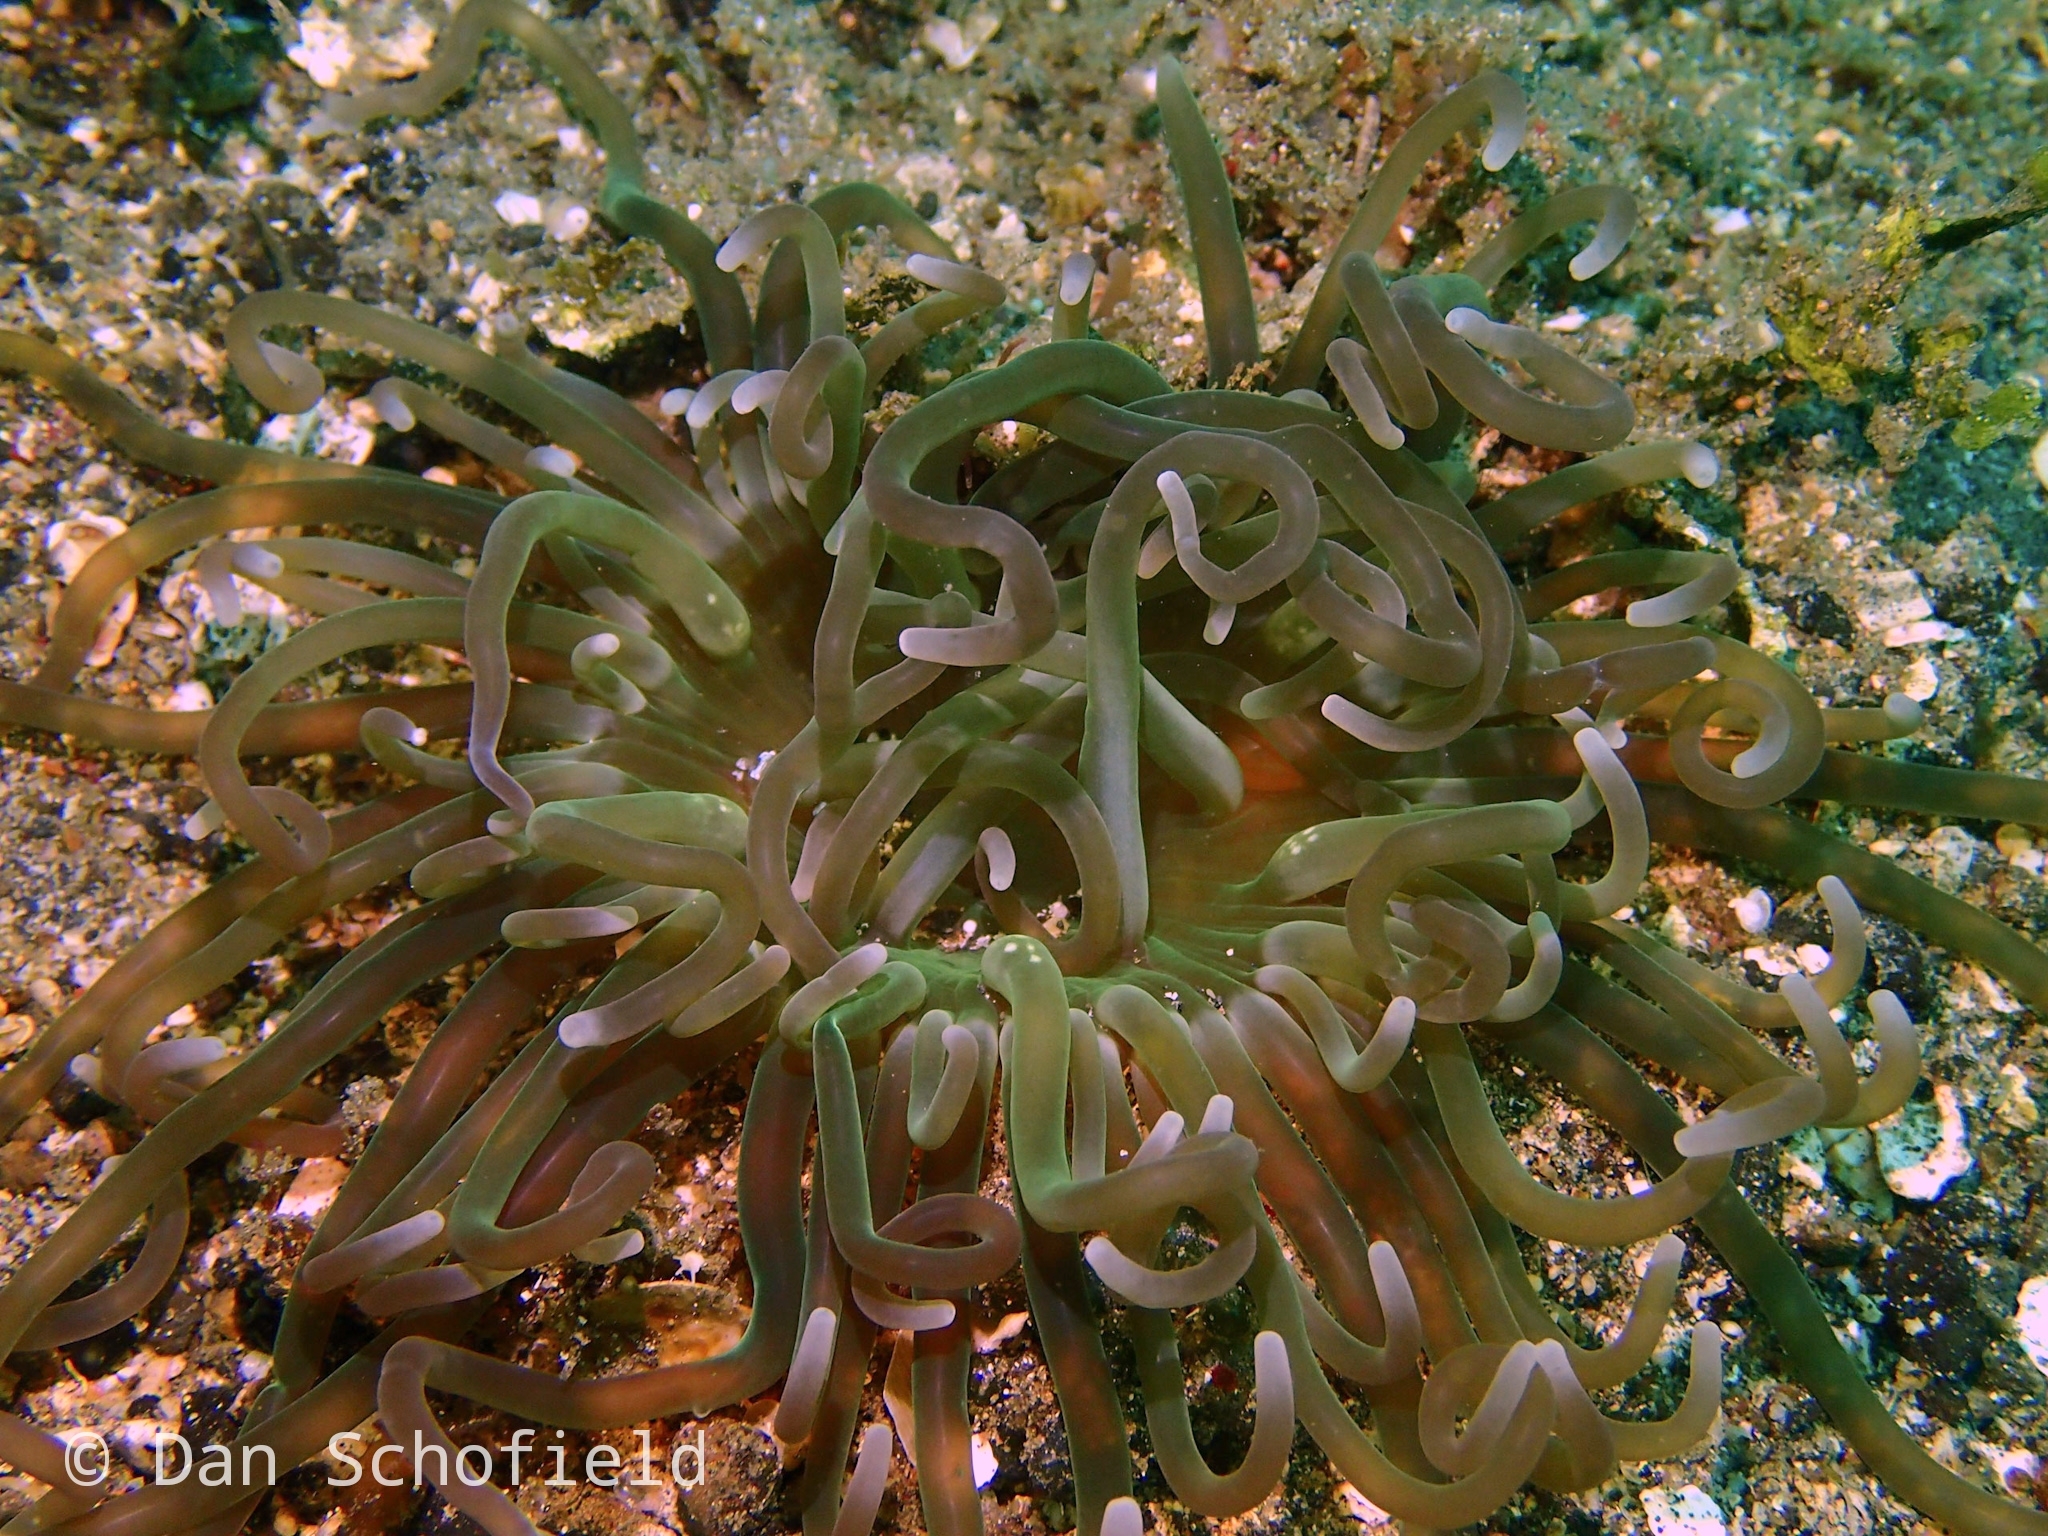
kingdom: Animalia
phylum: Cnidaria
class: Anthozoa
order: Actiniaria
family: Heteractidae
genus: Heteractis
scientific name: Heteractis
